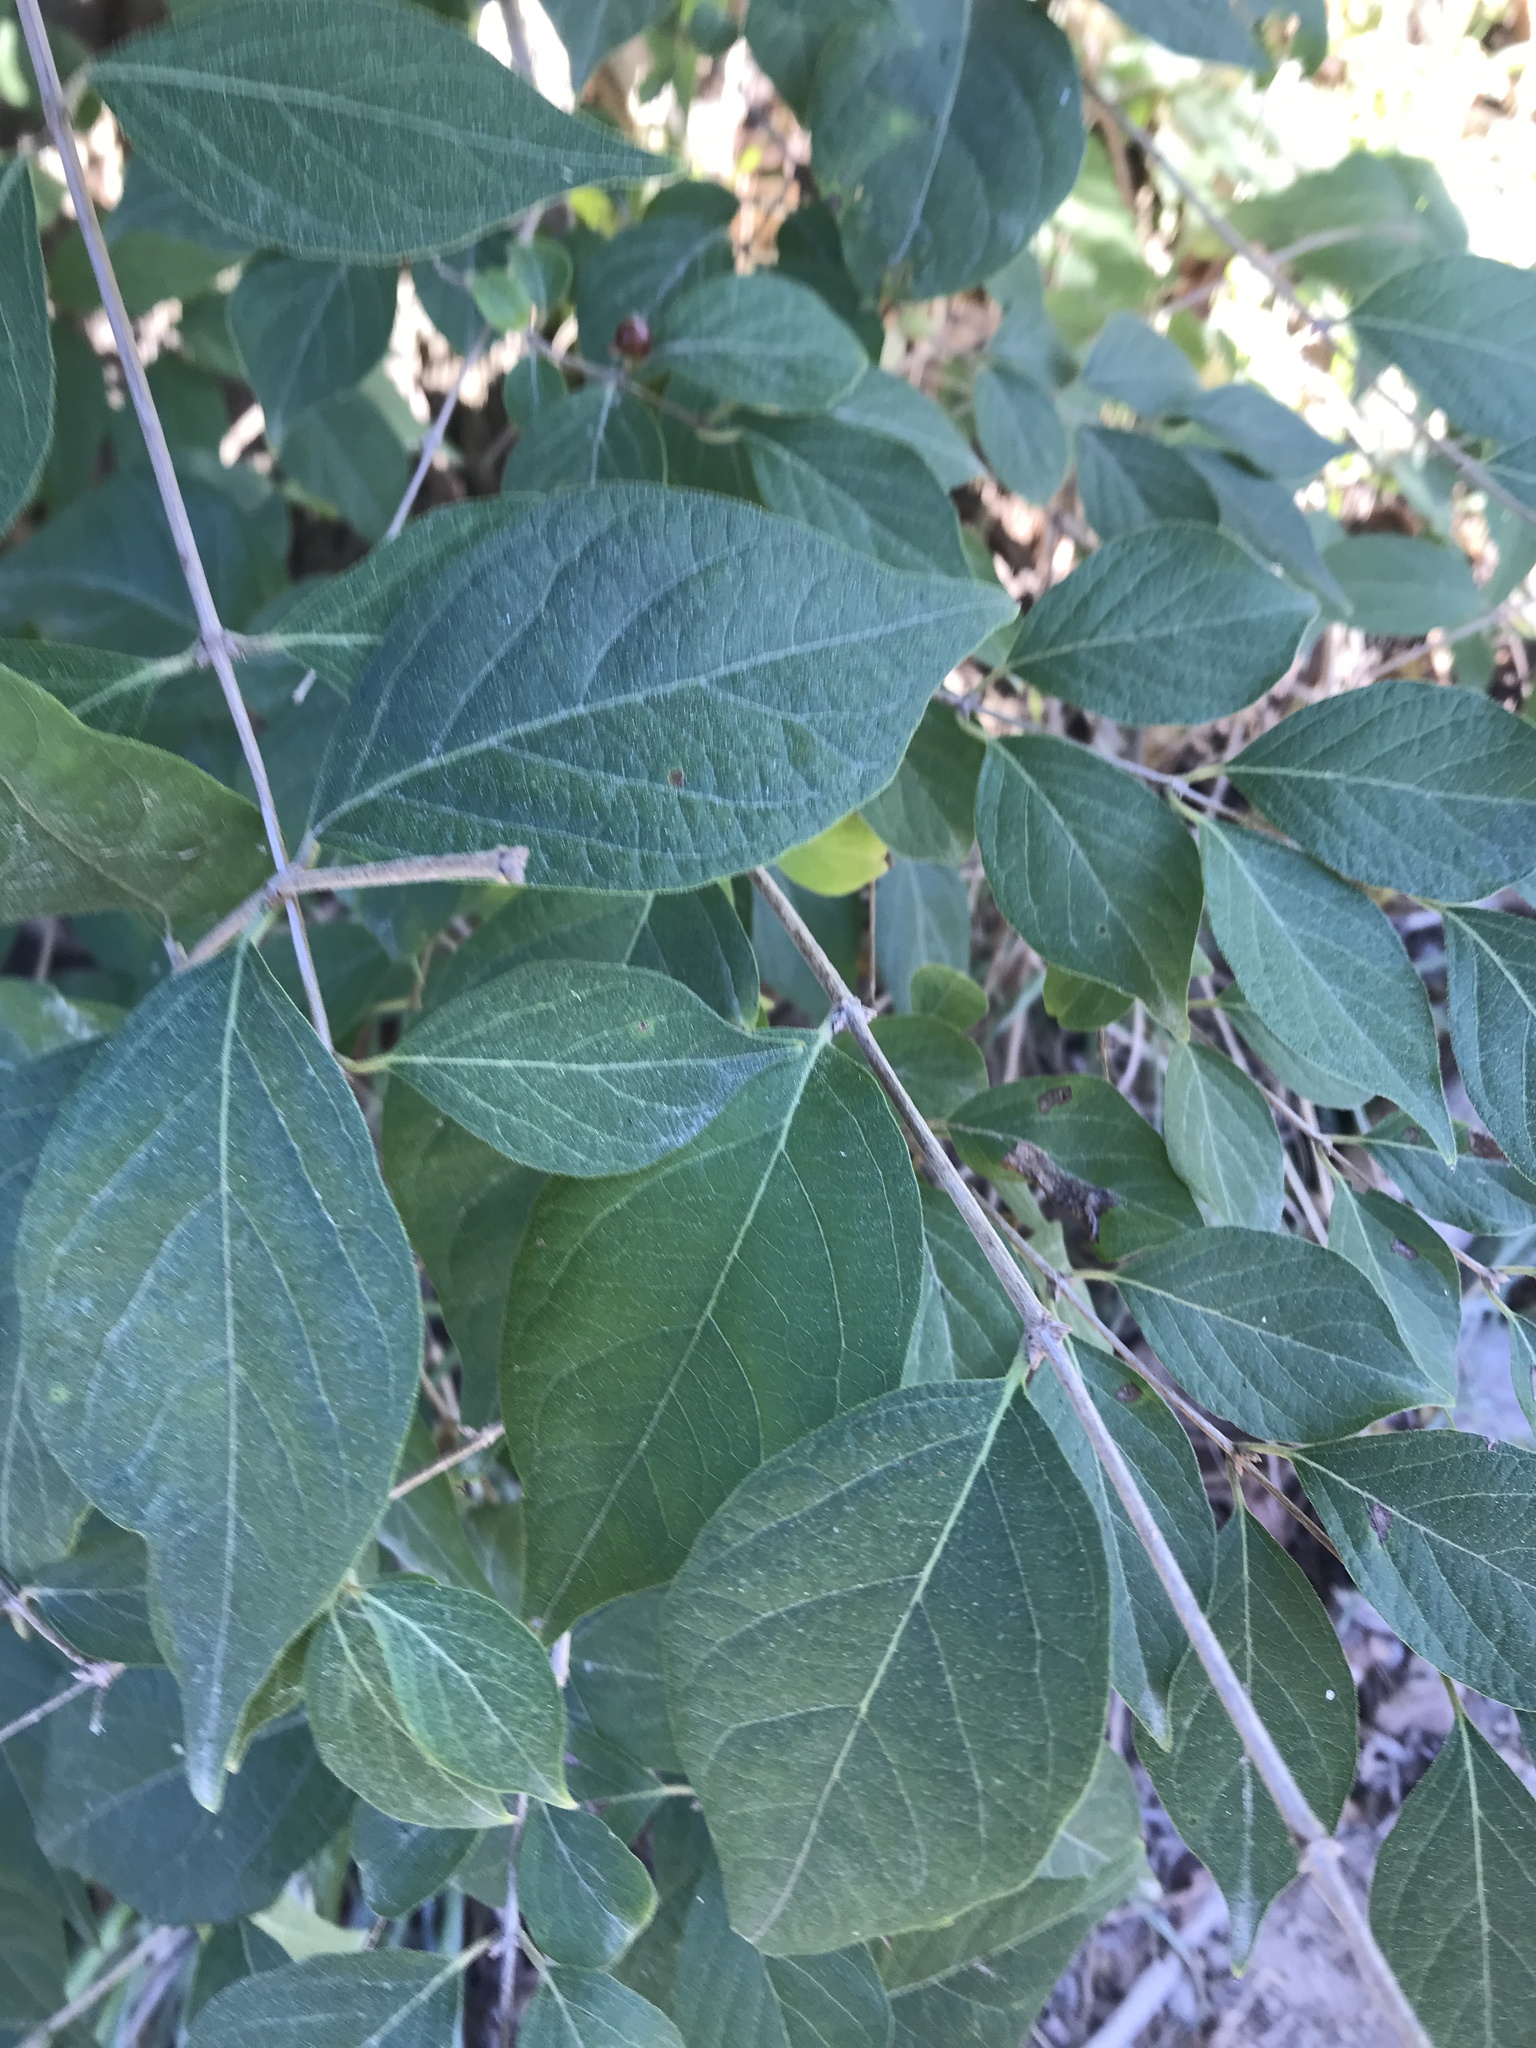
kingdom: Plantae
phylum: Tracheophyta
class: Magnoliopsida
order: Dipsacales
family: Caprifoliaceae
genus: Lonicera
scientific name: Lonicera maackii
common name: Amur honeysuckle
